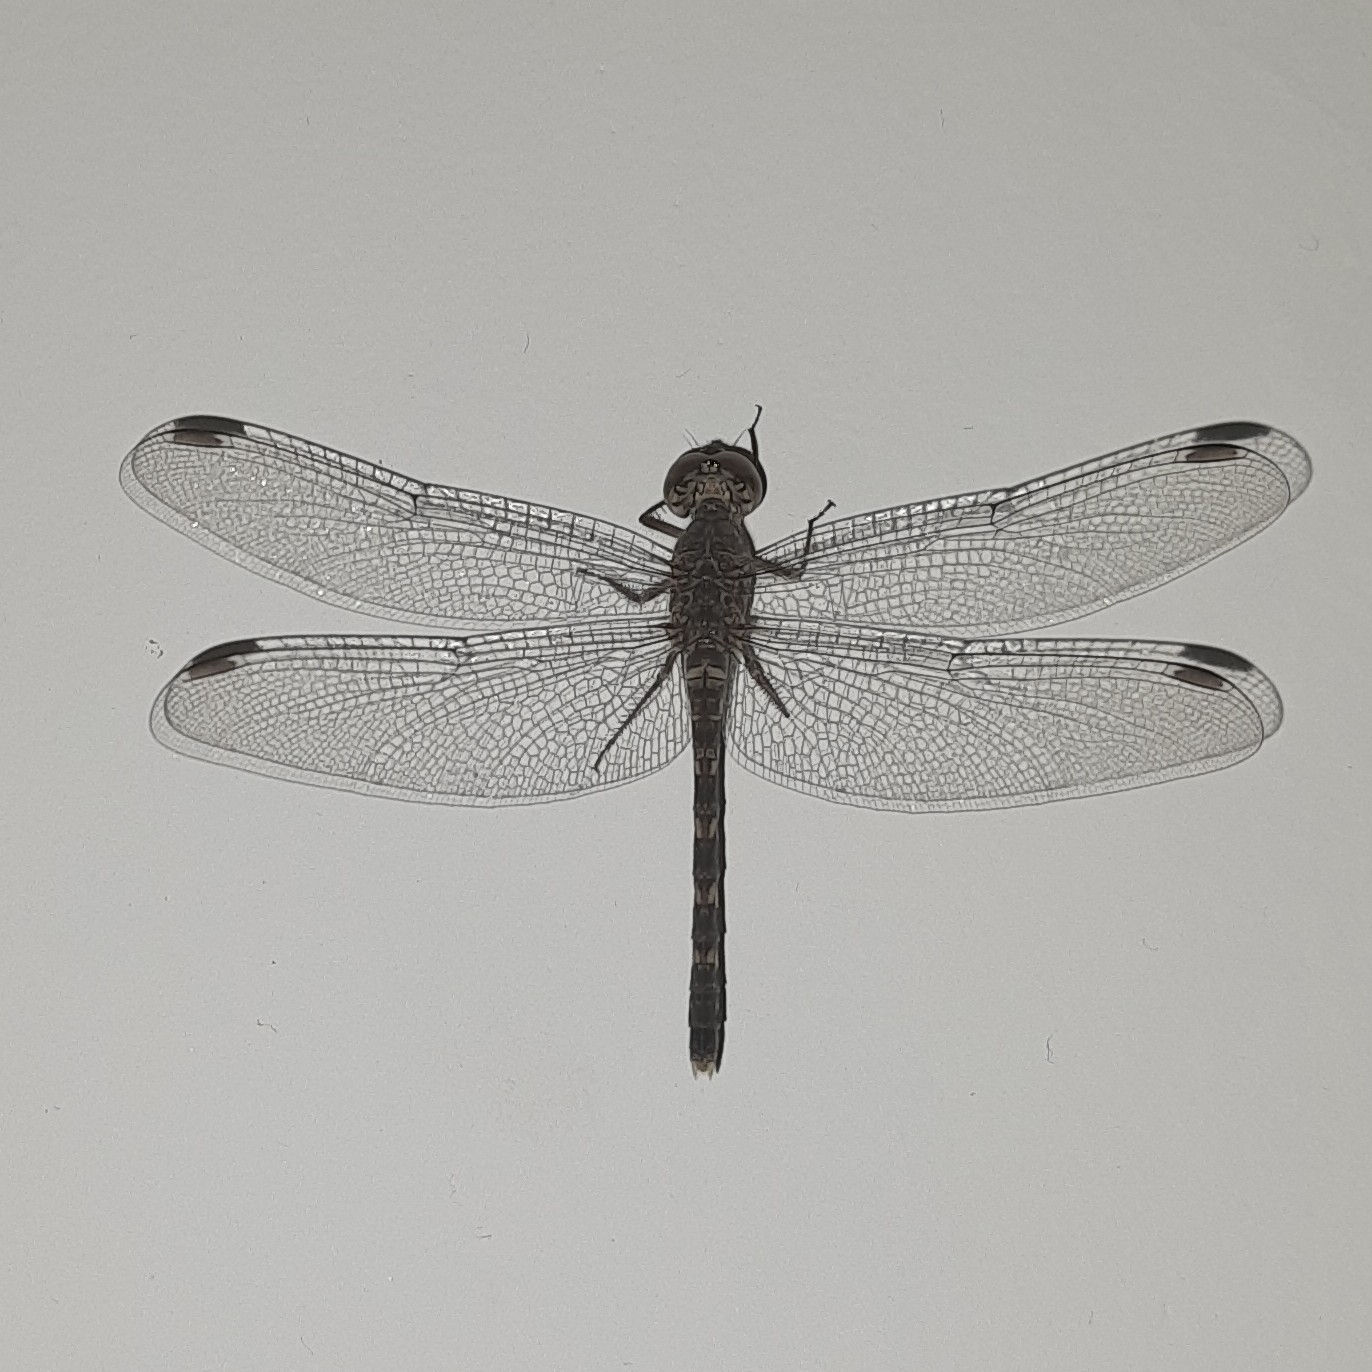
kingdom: Animalia
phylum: Arthropoda
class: Insecta
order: Odonata
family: Libellulidae
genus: Bradinopyga
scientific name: Bradinopyga geminata
